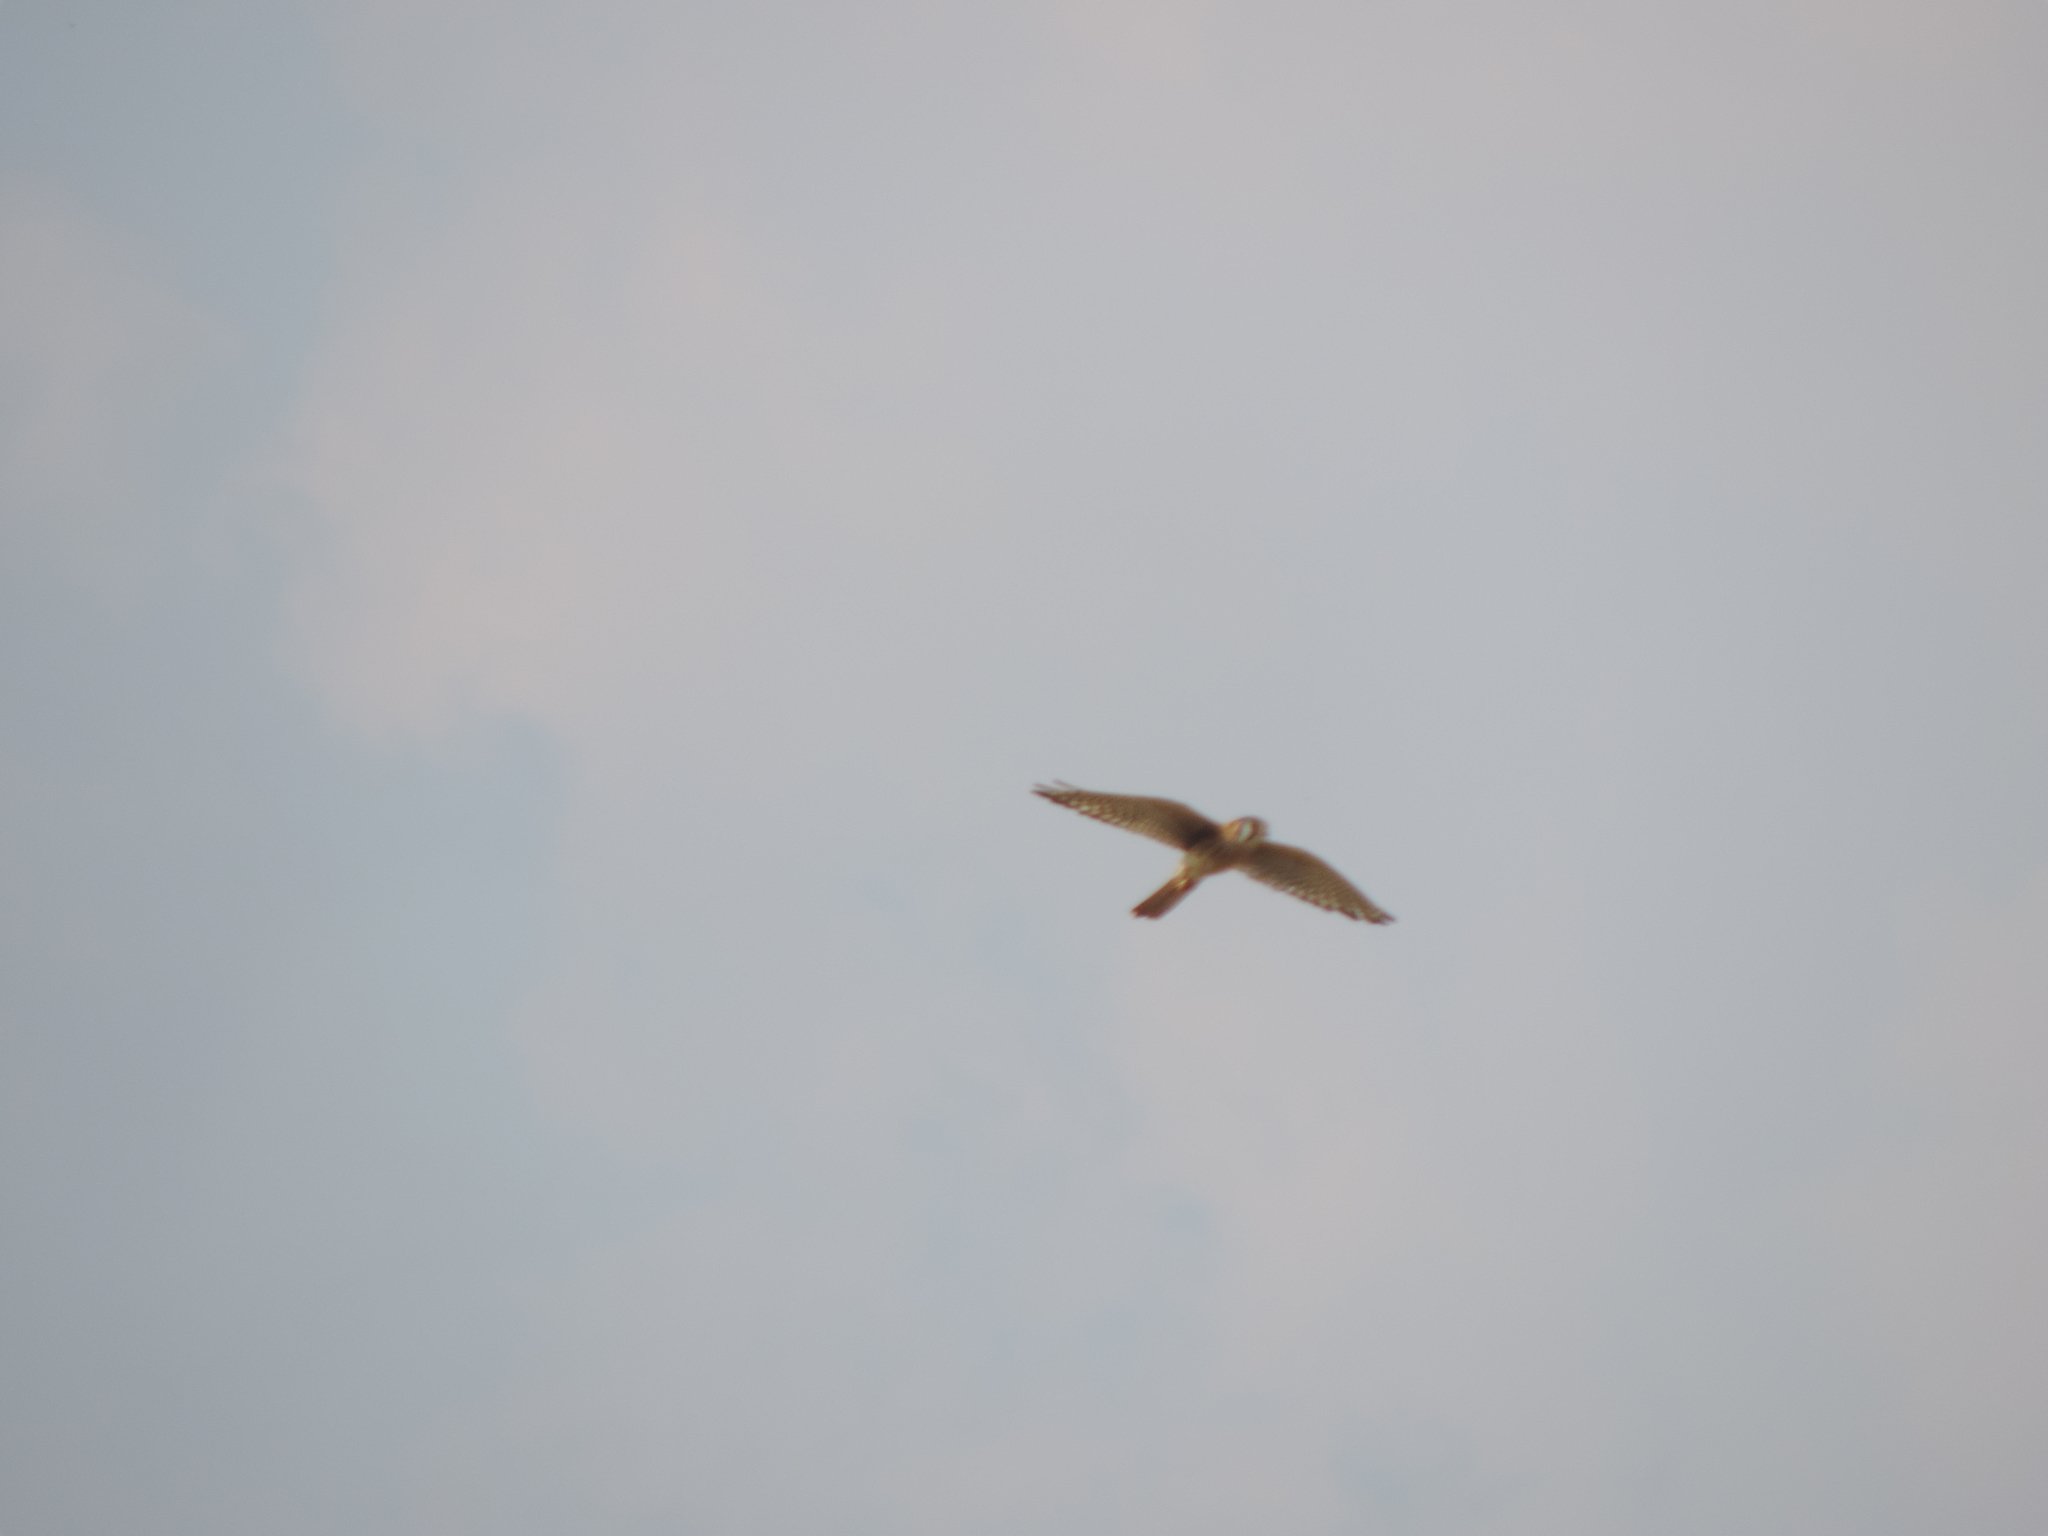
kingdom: Animalia
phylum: Chordata
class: Aves
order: Falconiformes
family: Falconidae
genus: Falco
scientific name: Falco sparverius
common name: American kestrel
